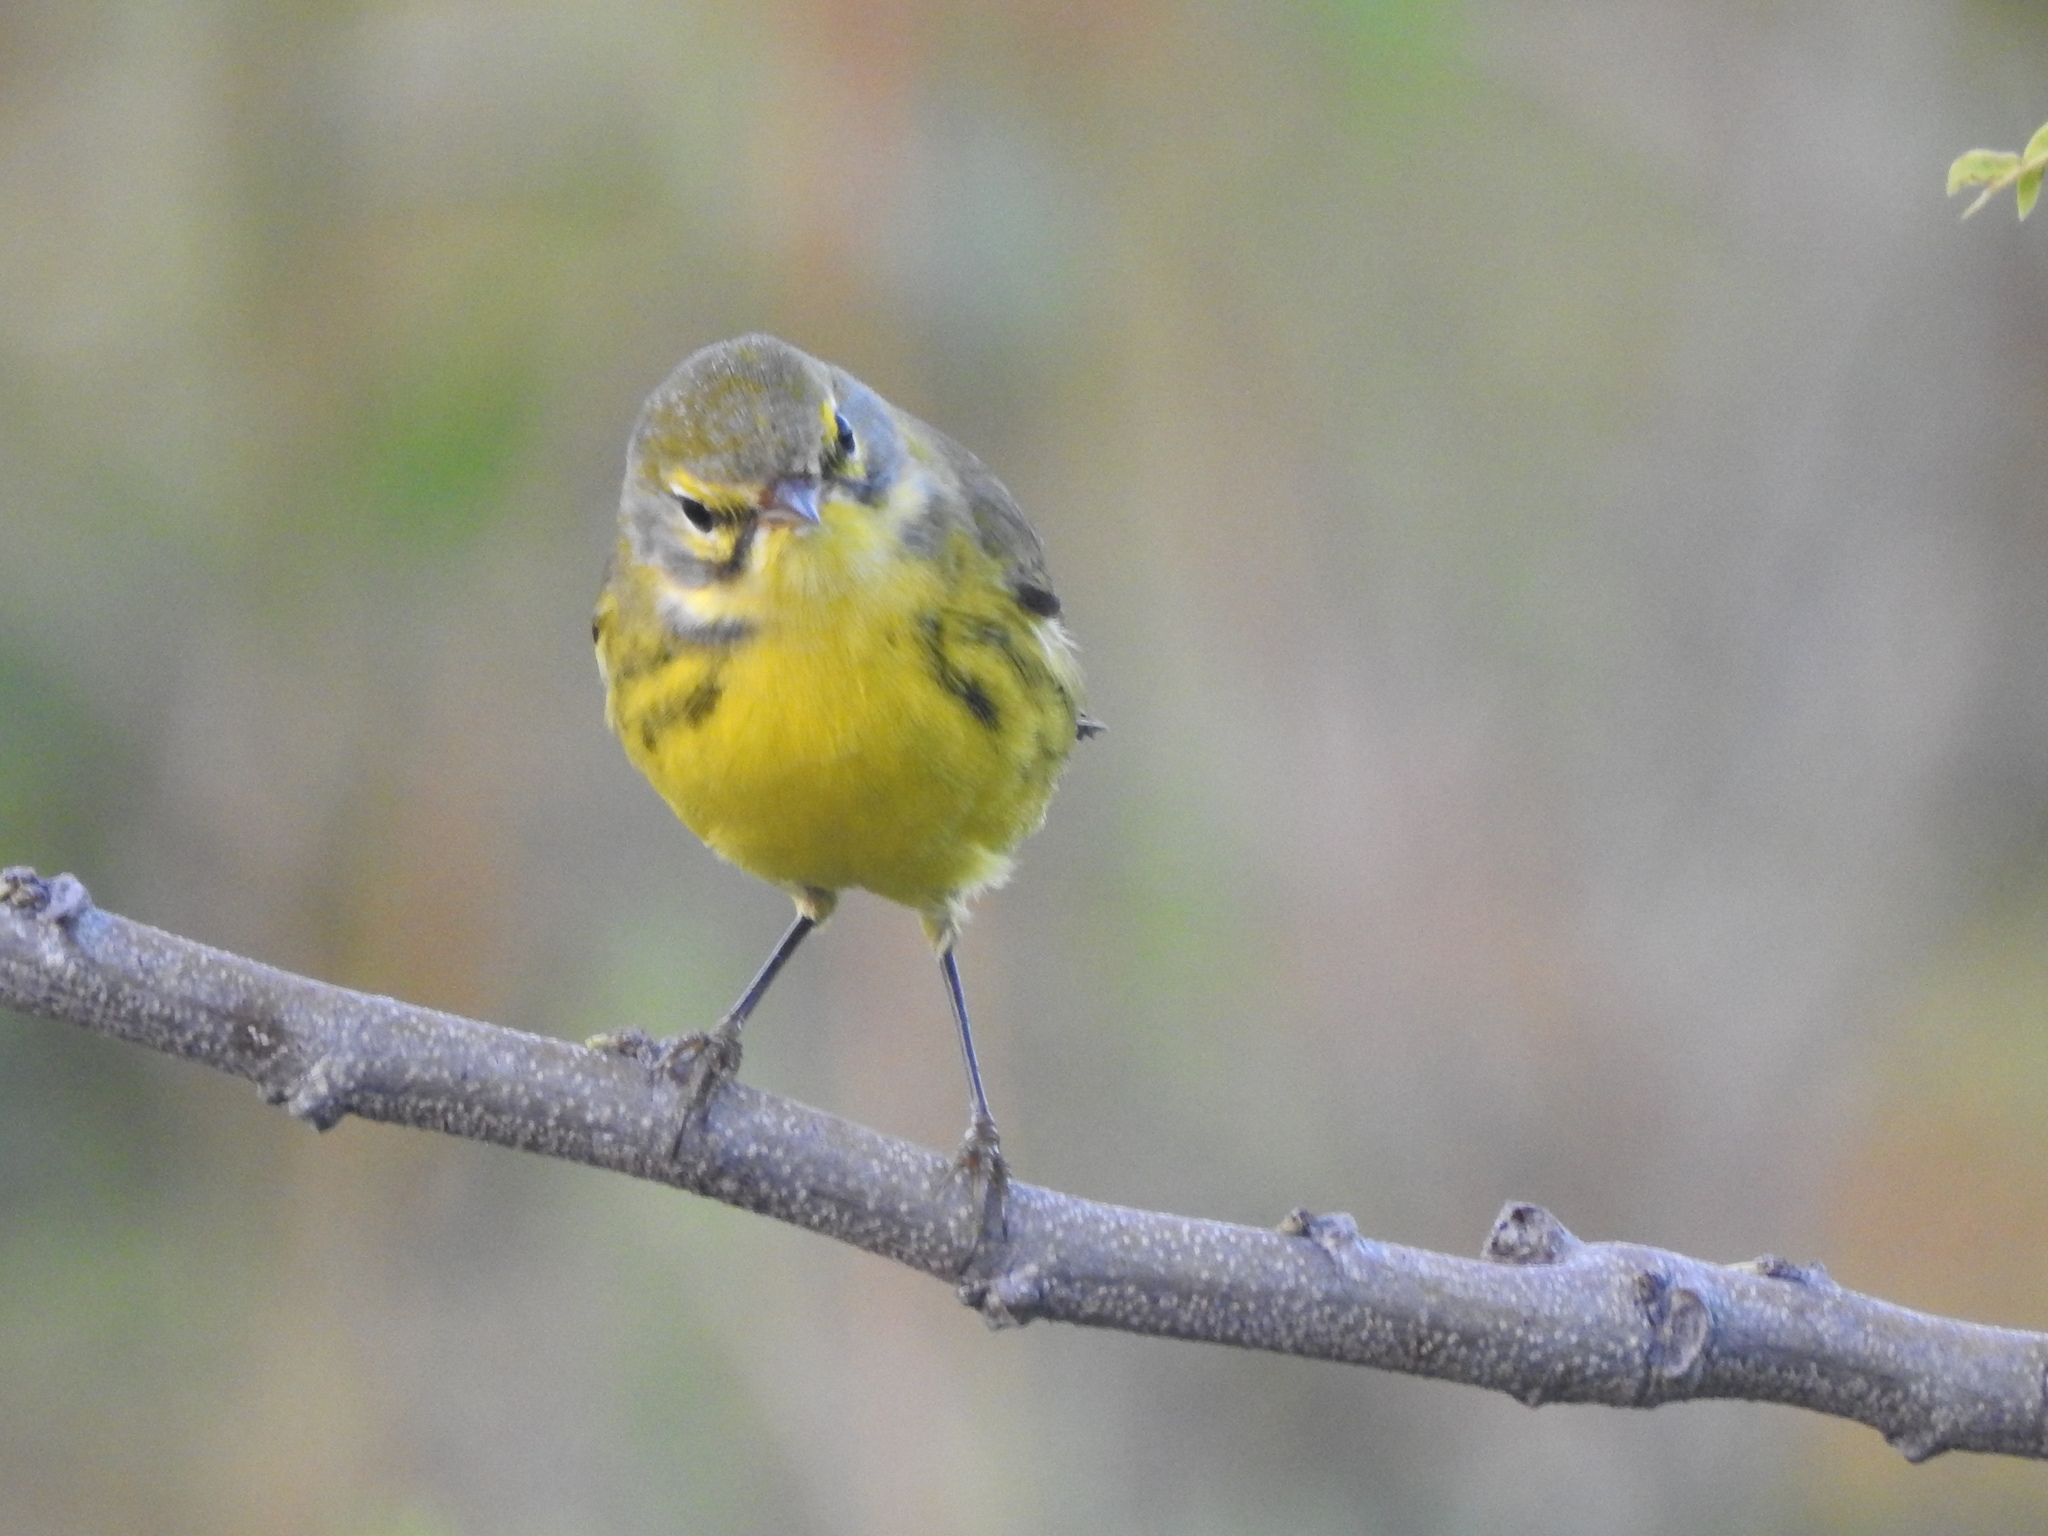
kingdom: Animalia
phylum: Chordata
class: Aves
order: Passeriformes
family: Parulidae
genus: Setophaga
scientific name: Setophaga discolor
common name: Prairie warbler
